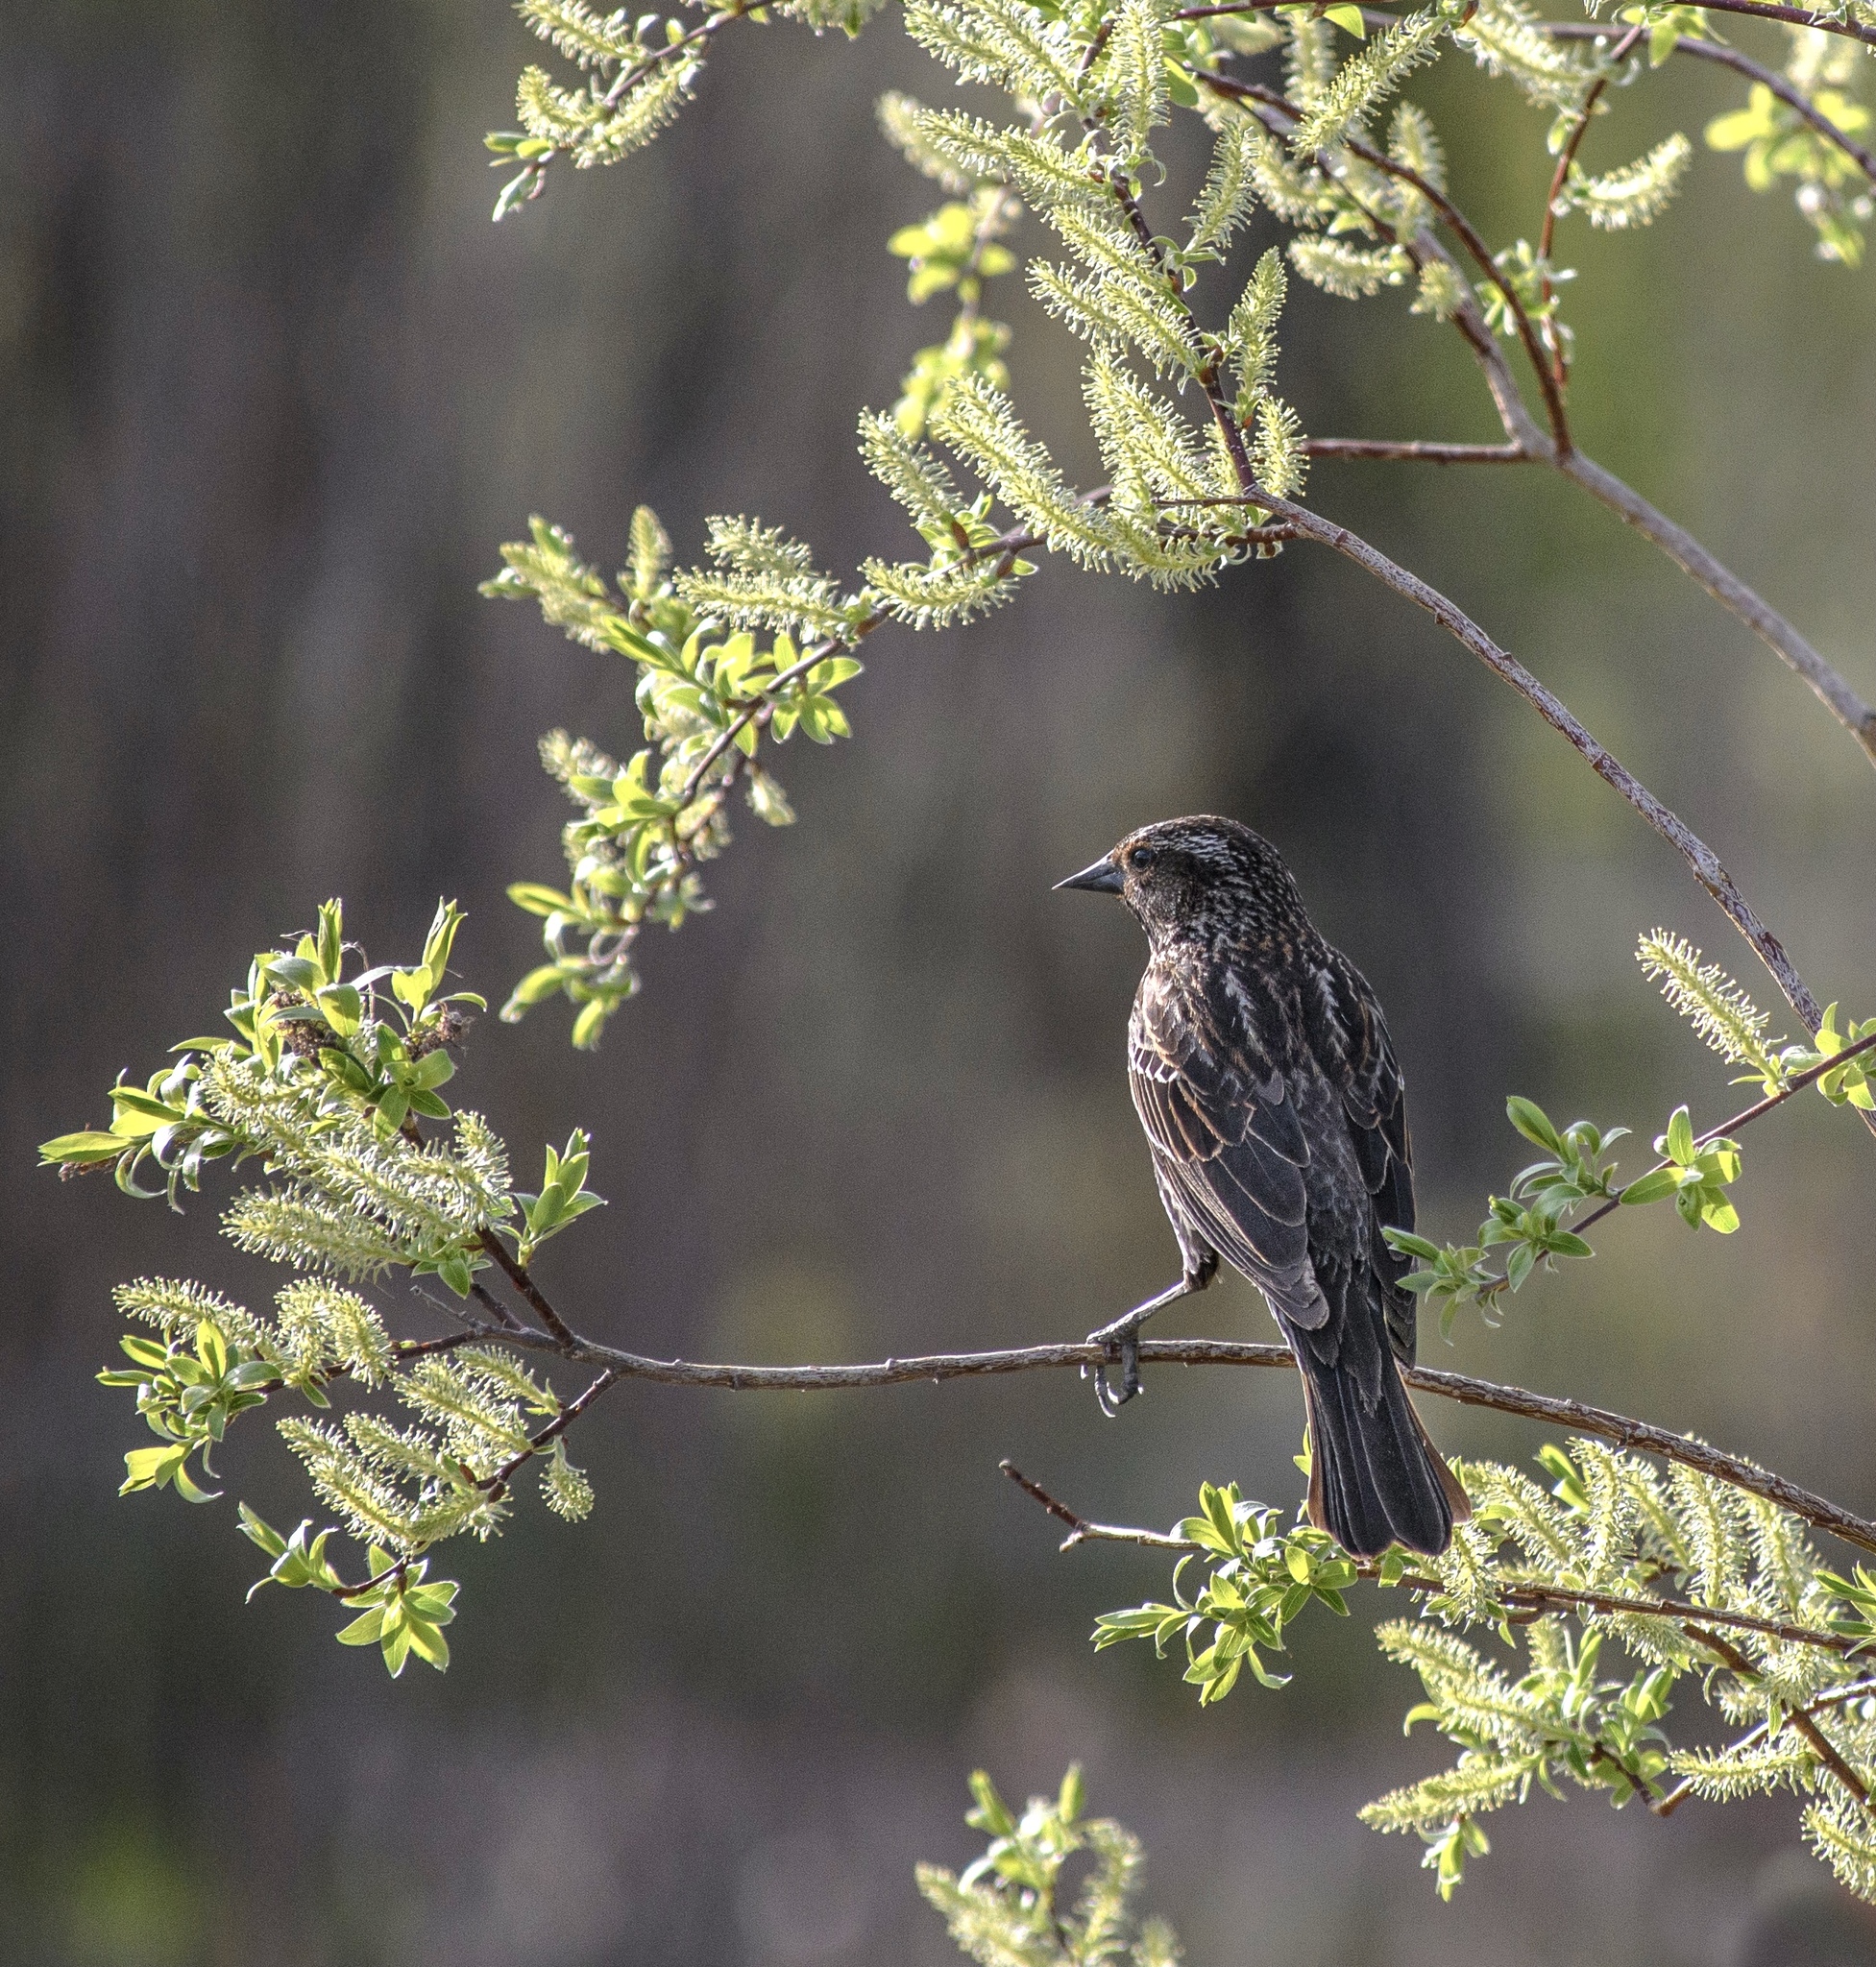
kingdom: Animalia
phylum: Chordata
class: Aves
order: Passeriformes
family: Icteridae
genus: Agelaius
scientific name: Agelaius phoeniceus
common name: Red-winged blackbird
